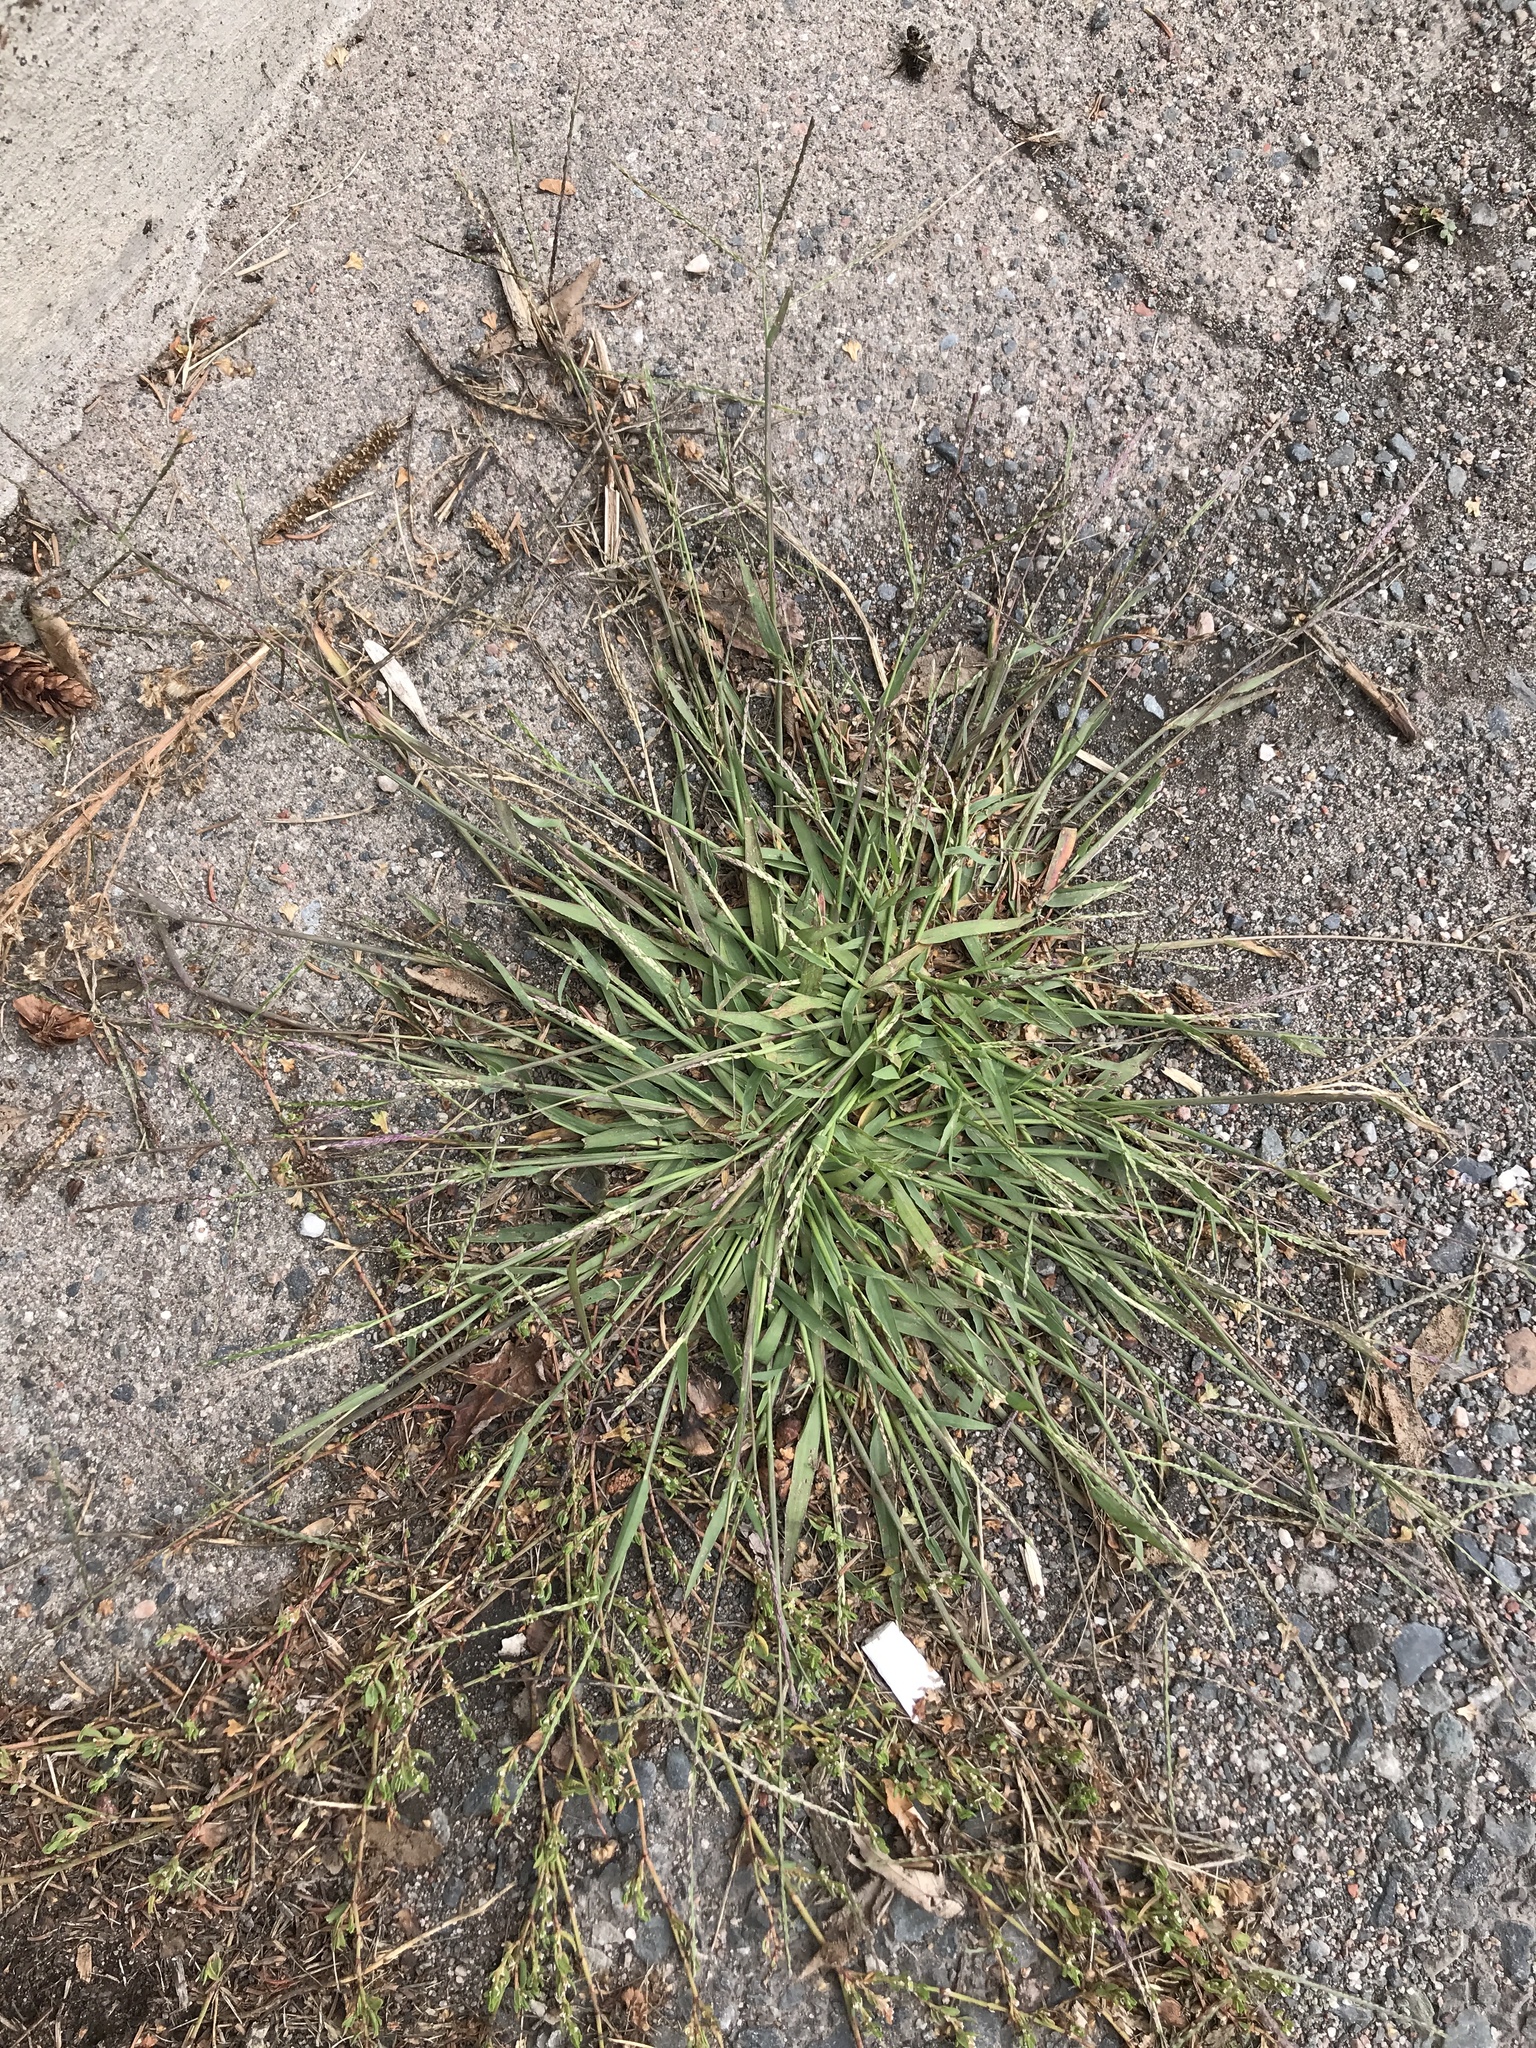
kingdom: Plantae
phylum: Tracheophyta
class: Liliopsida
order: Poales
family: Poaceae
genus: Digitaria
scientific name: Digitaria ischaemum
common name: Smooth crabgrass
